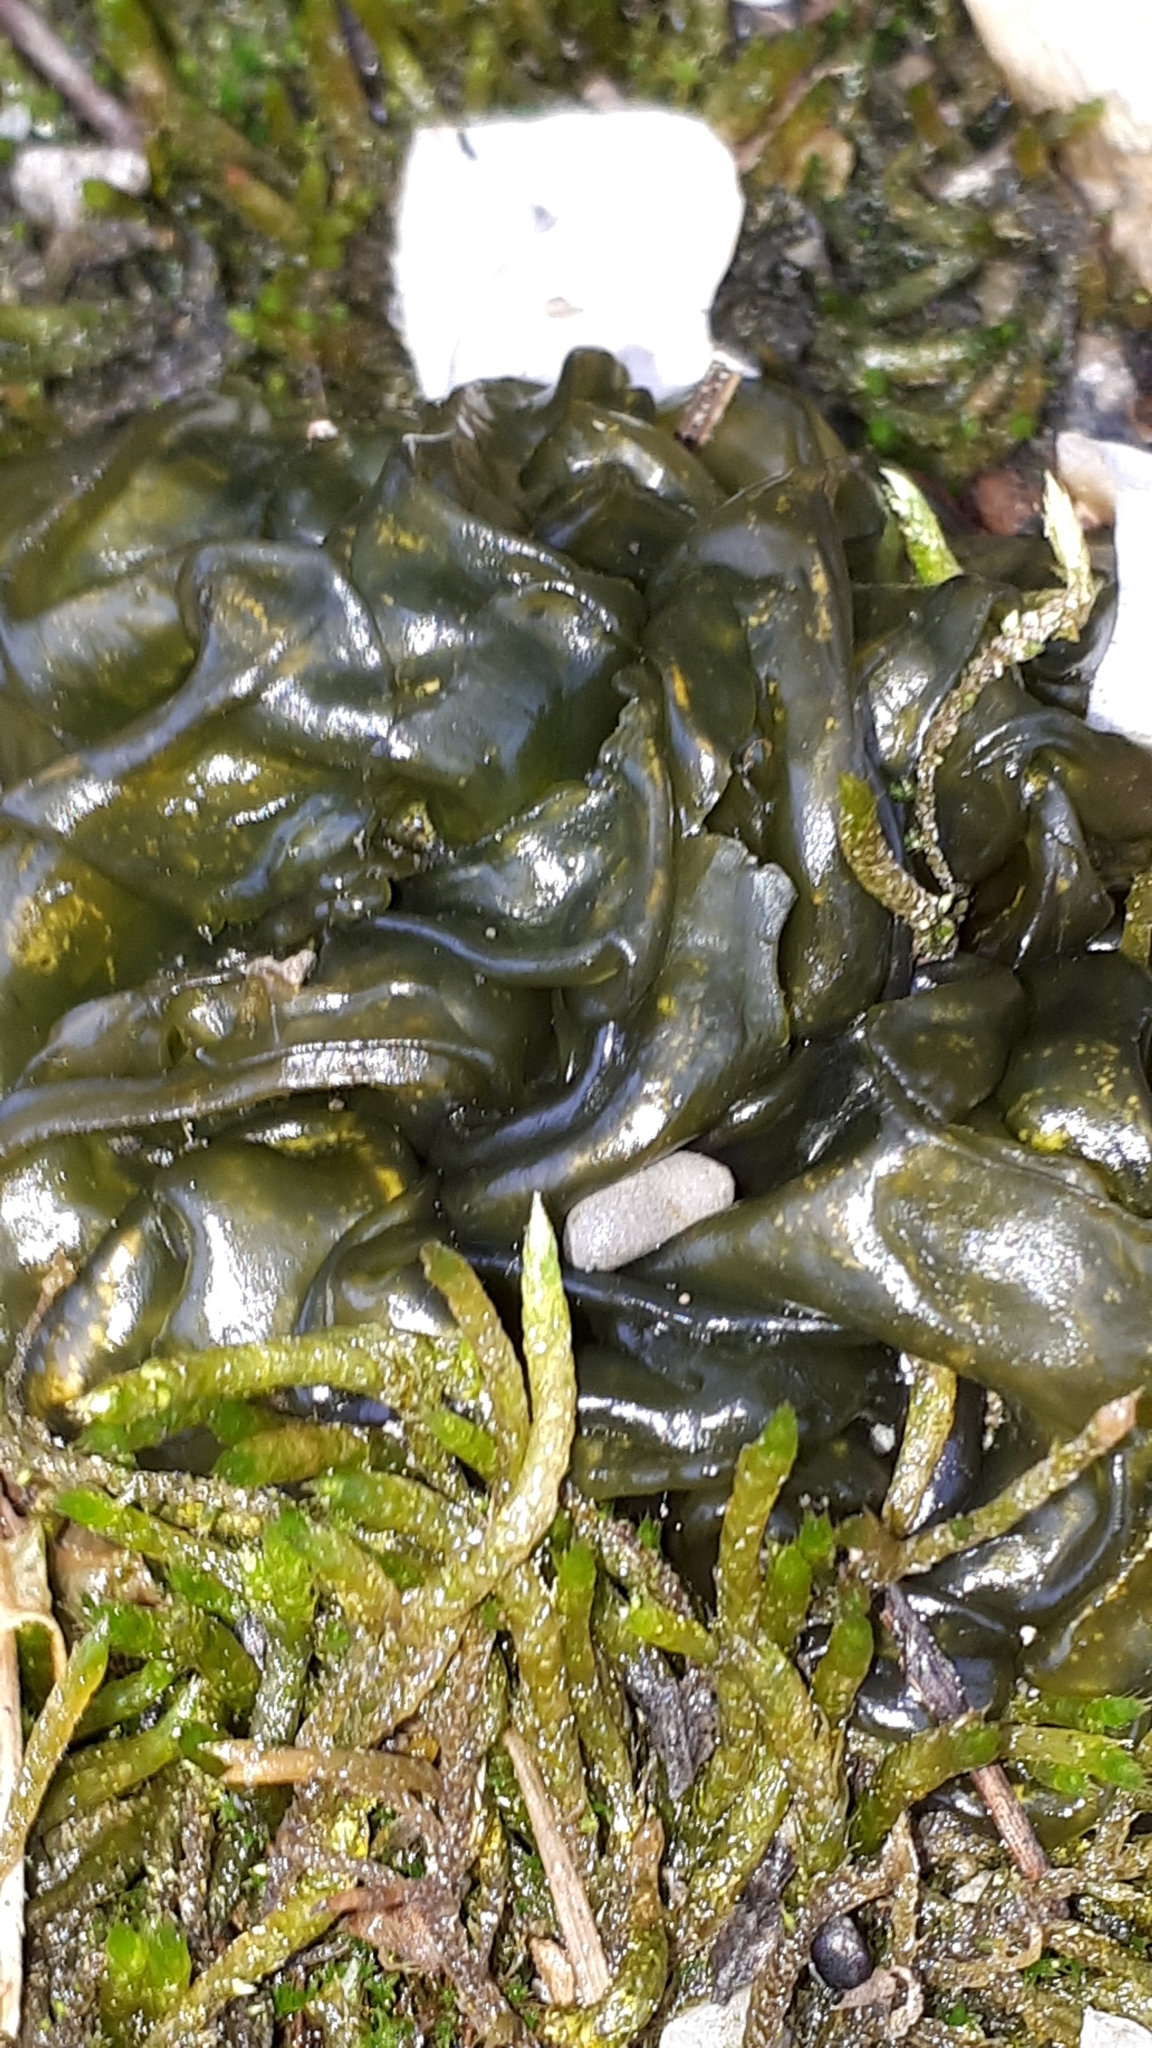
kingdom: Bacteria
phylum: Cyanobacteria
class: Cyanobacteriia
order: Cyanobacteriales
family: Nostocaceae
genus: Nostoc
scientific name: Nostoc commune
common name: Star jelly
